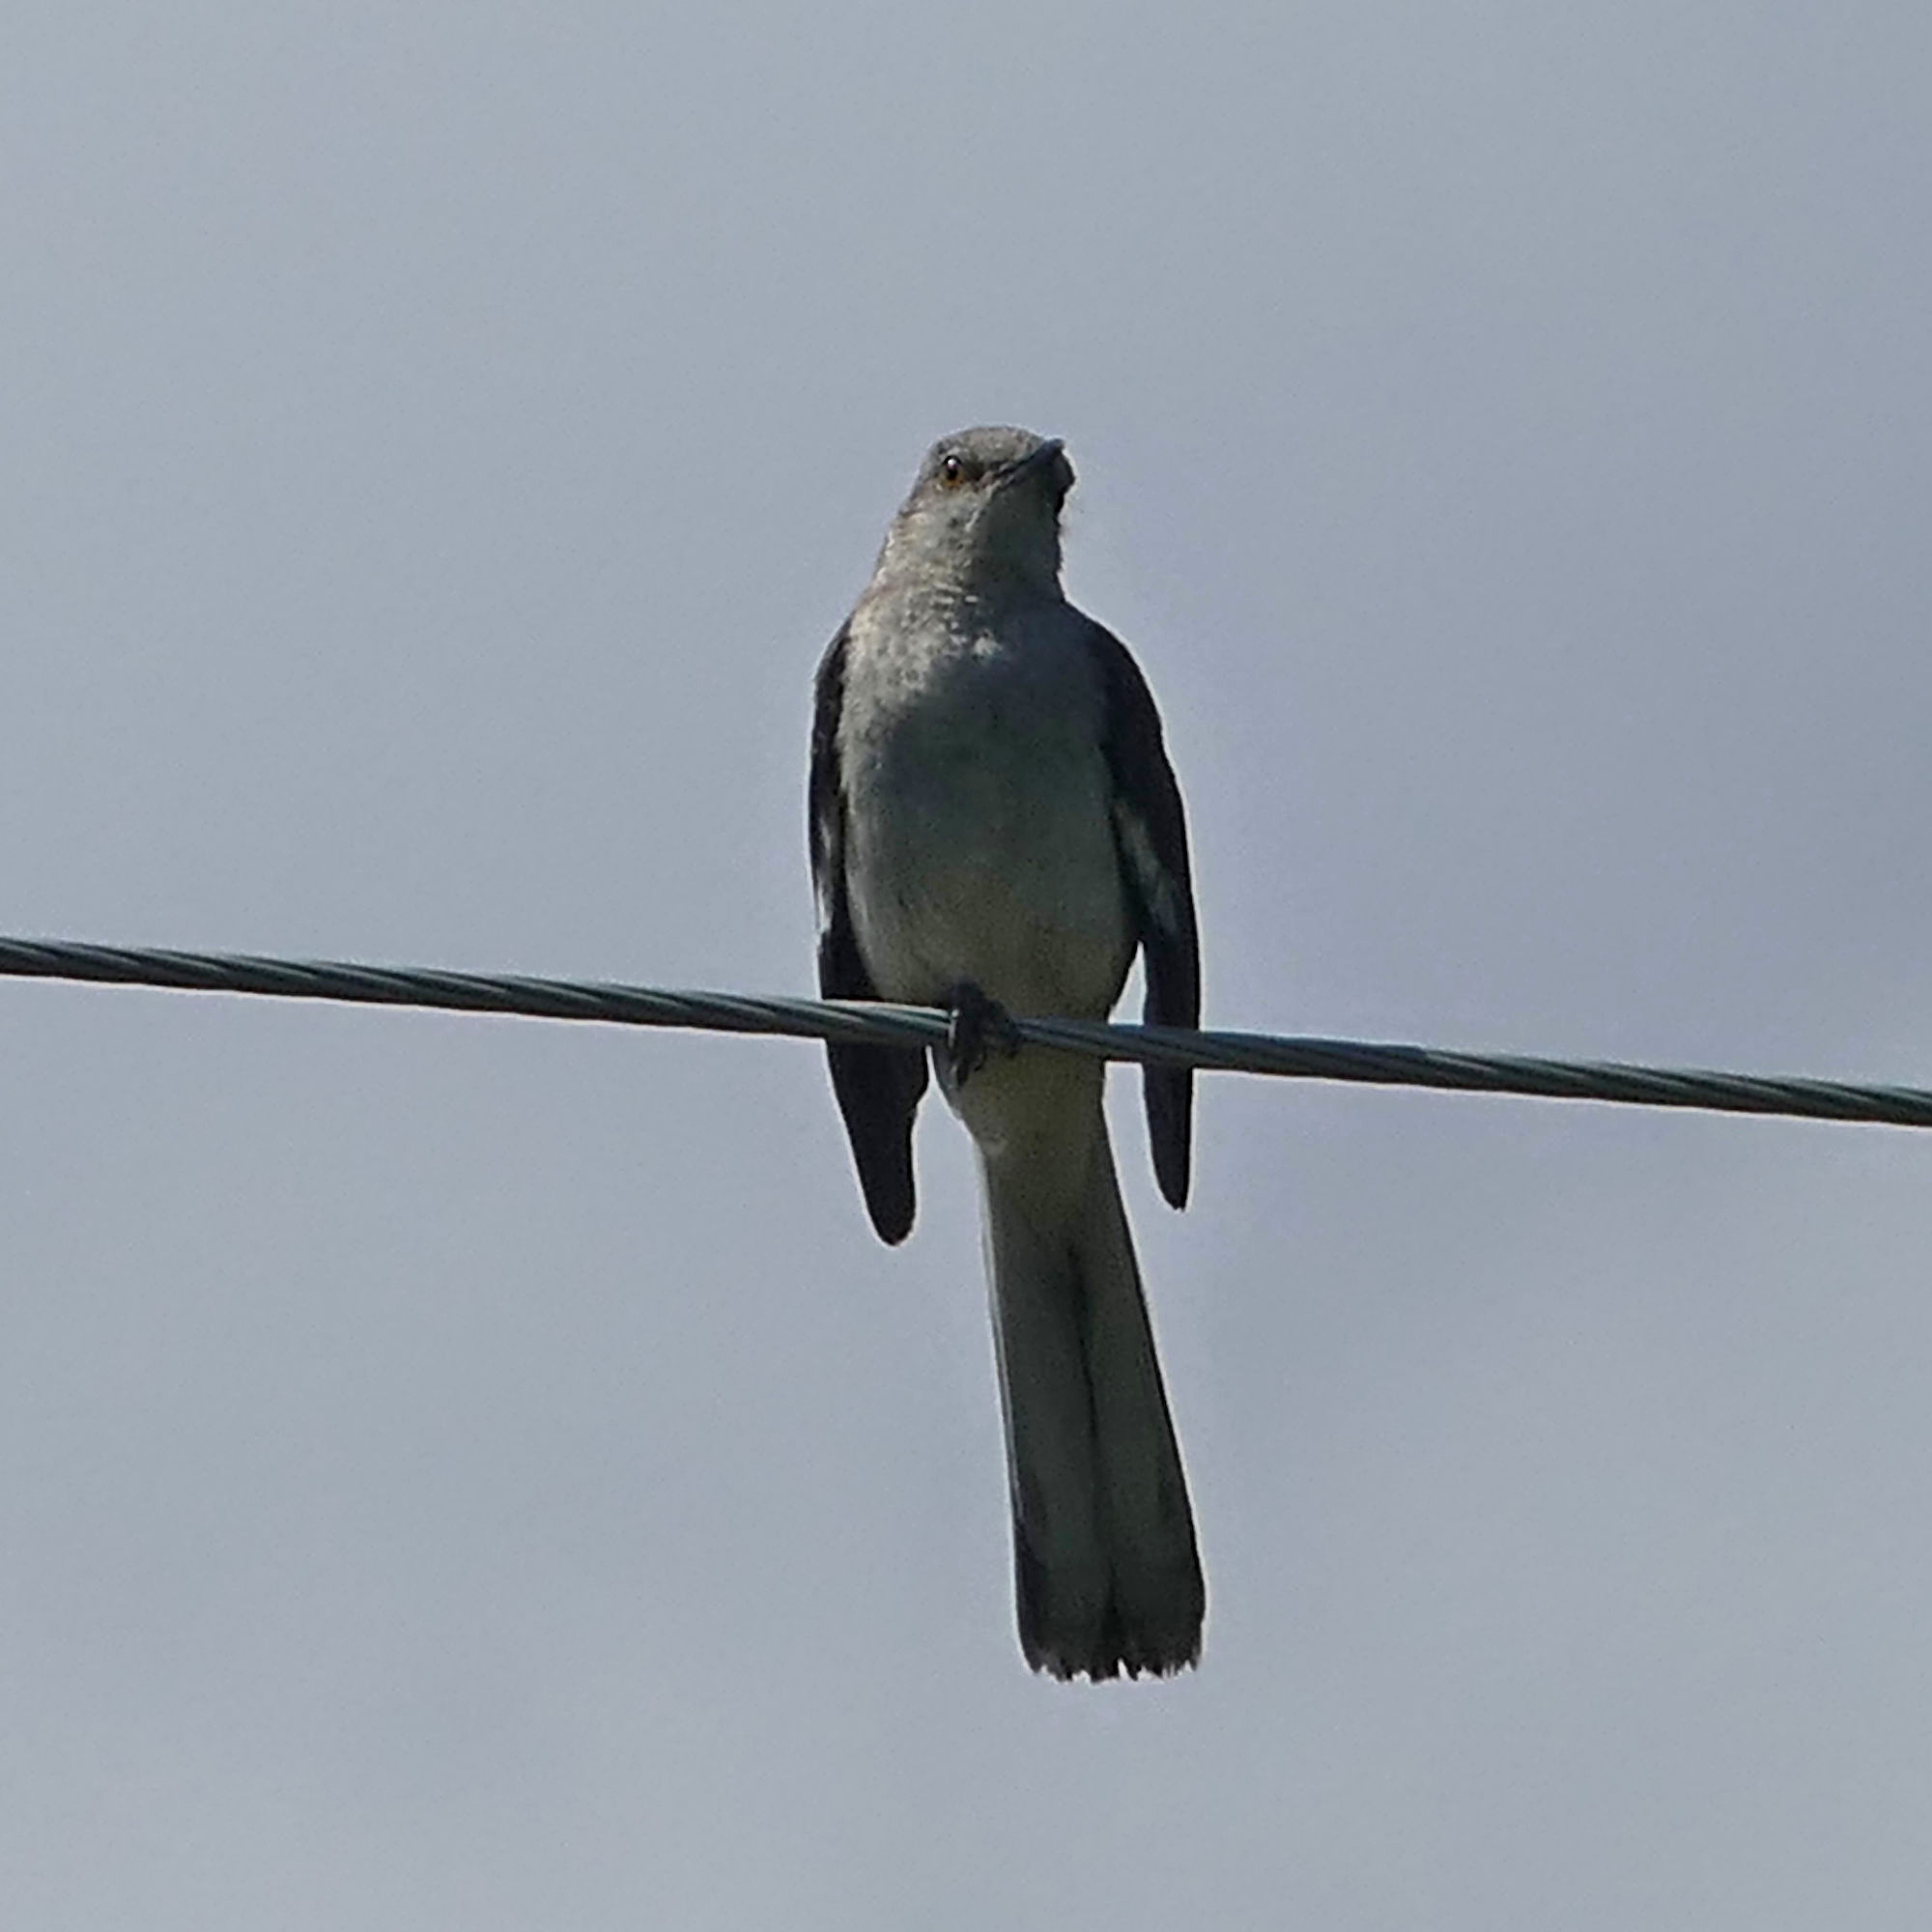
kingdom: Animalia
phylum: Chordata
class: Aves
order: Passeriformes
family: Mimidae
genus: Mimus
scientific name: Mimus polyglottos
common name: Northern mockingbird
